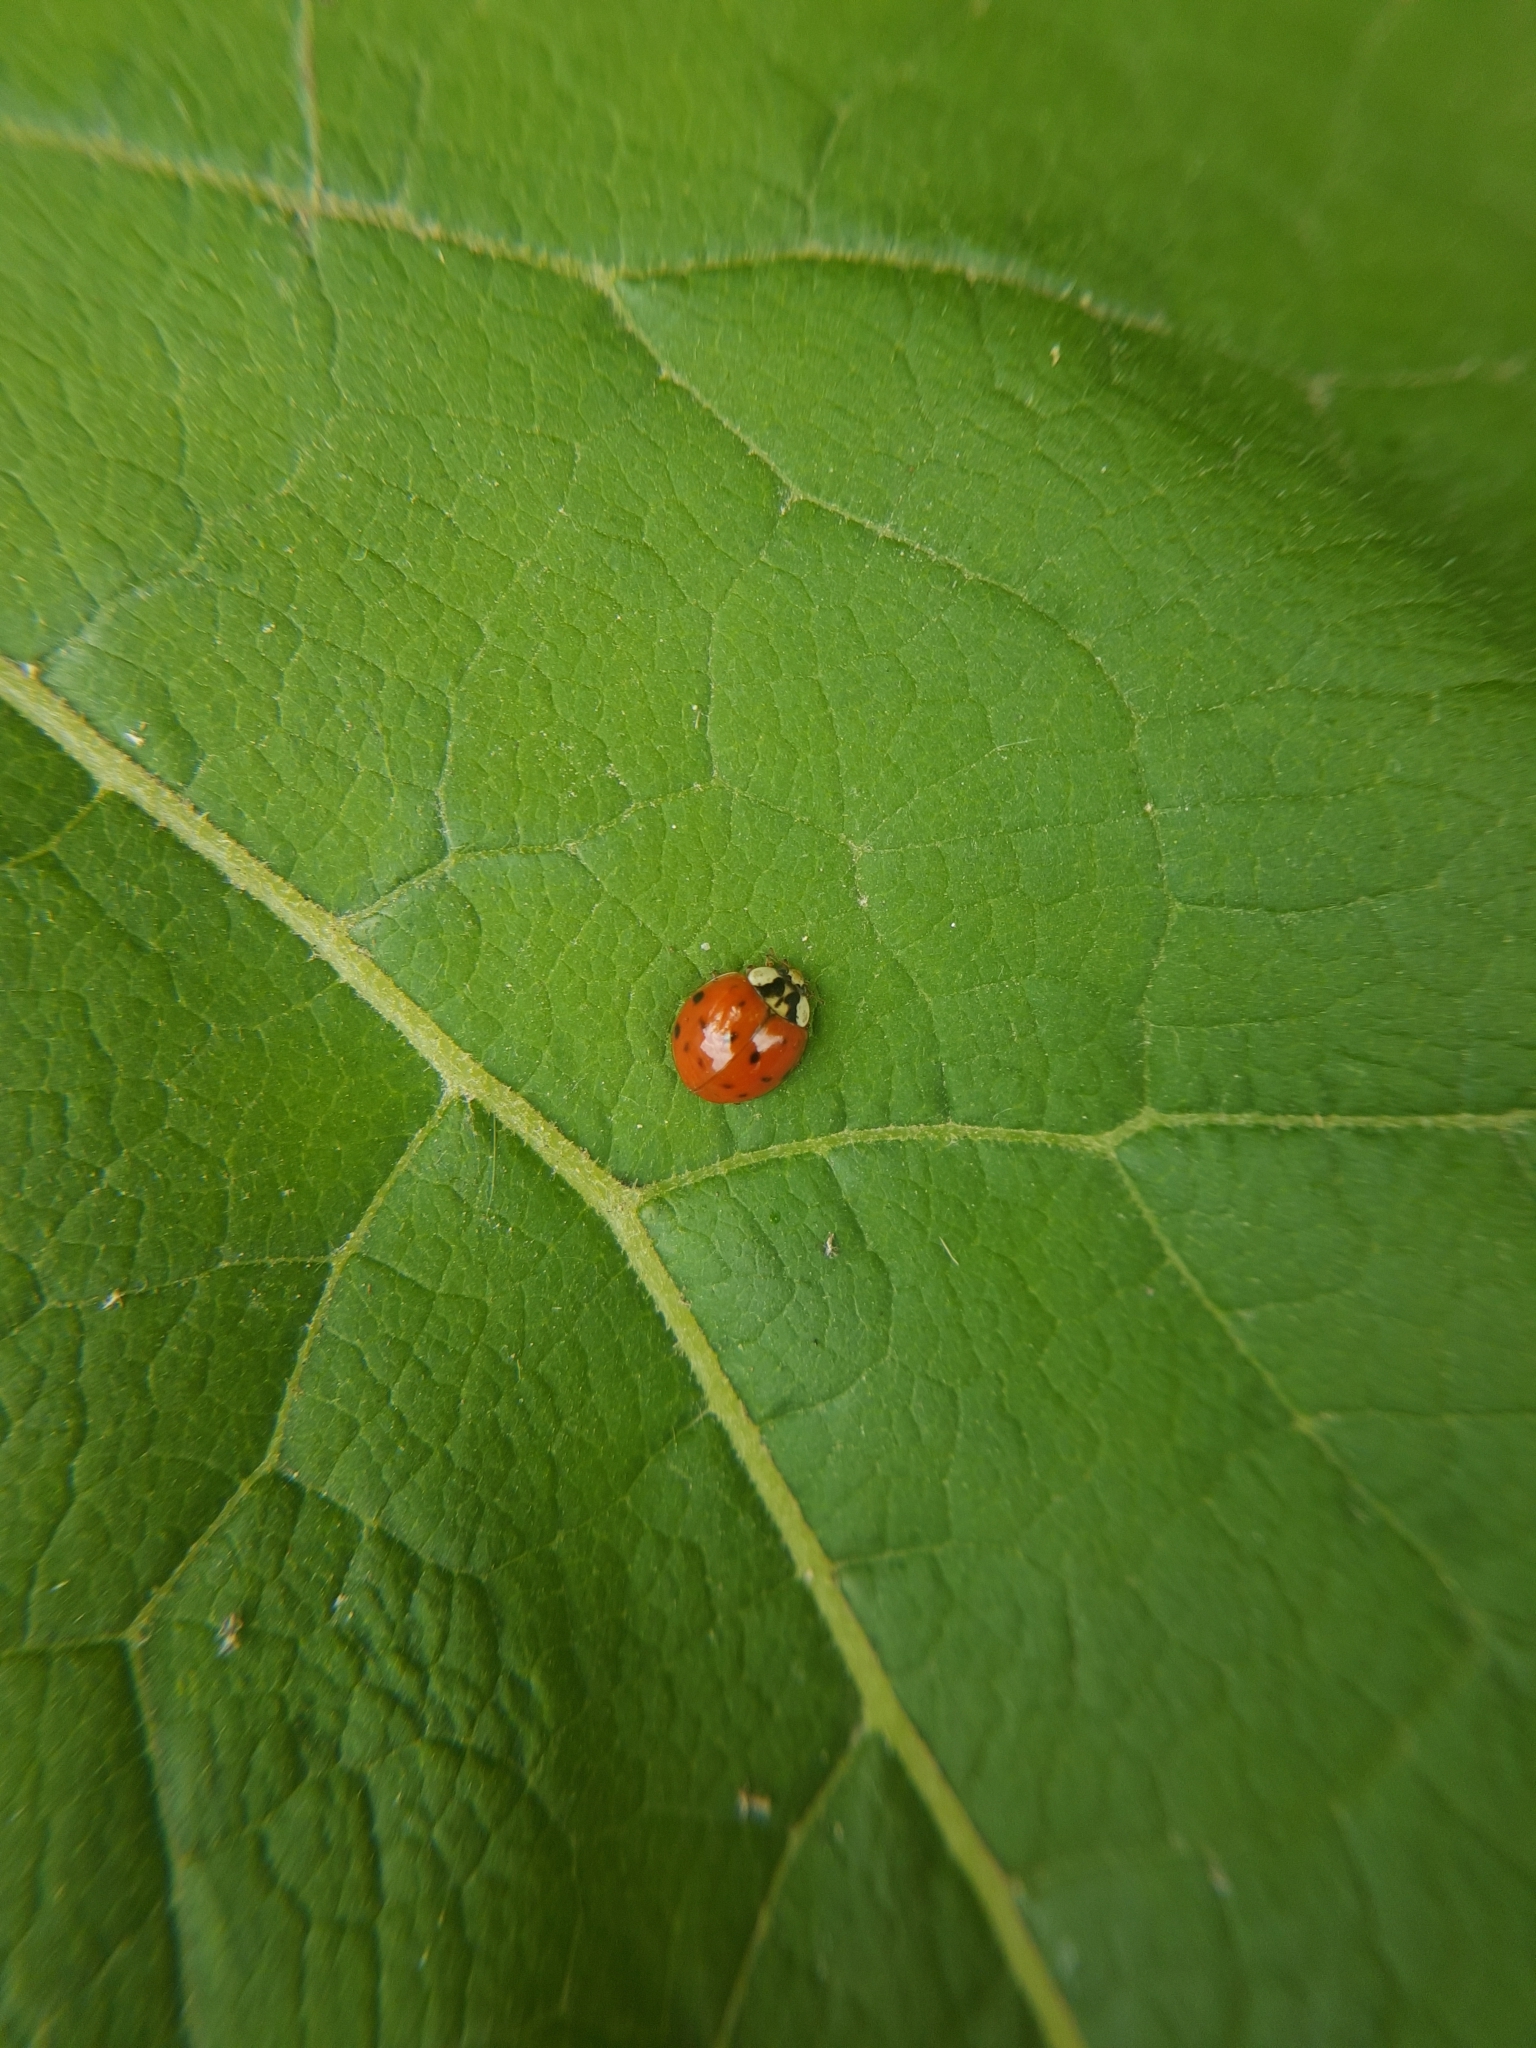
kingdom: Animalia
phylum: Arthropoda
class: Insecta
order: Coleoptera
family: Coccinellidae
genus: Harmonia
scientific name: Harmonia axyridis
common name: Harlequin ladybird
